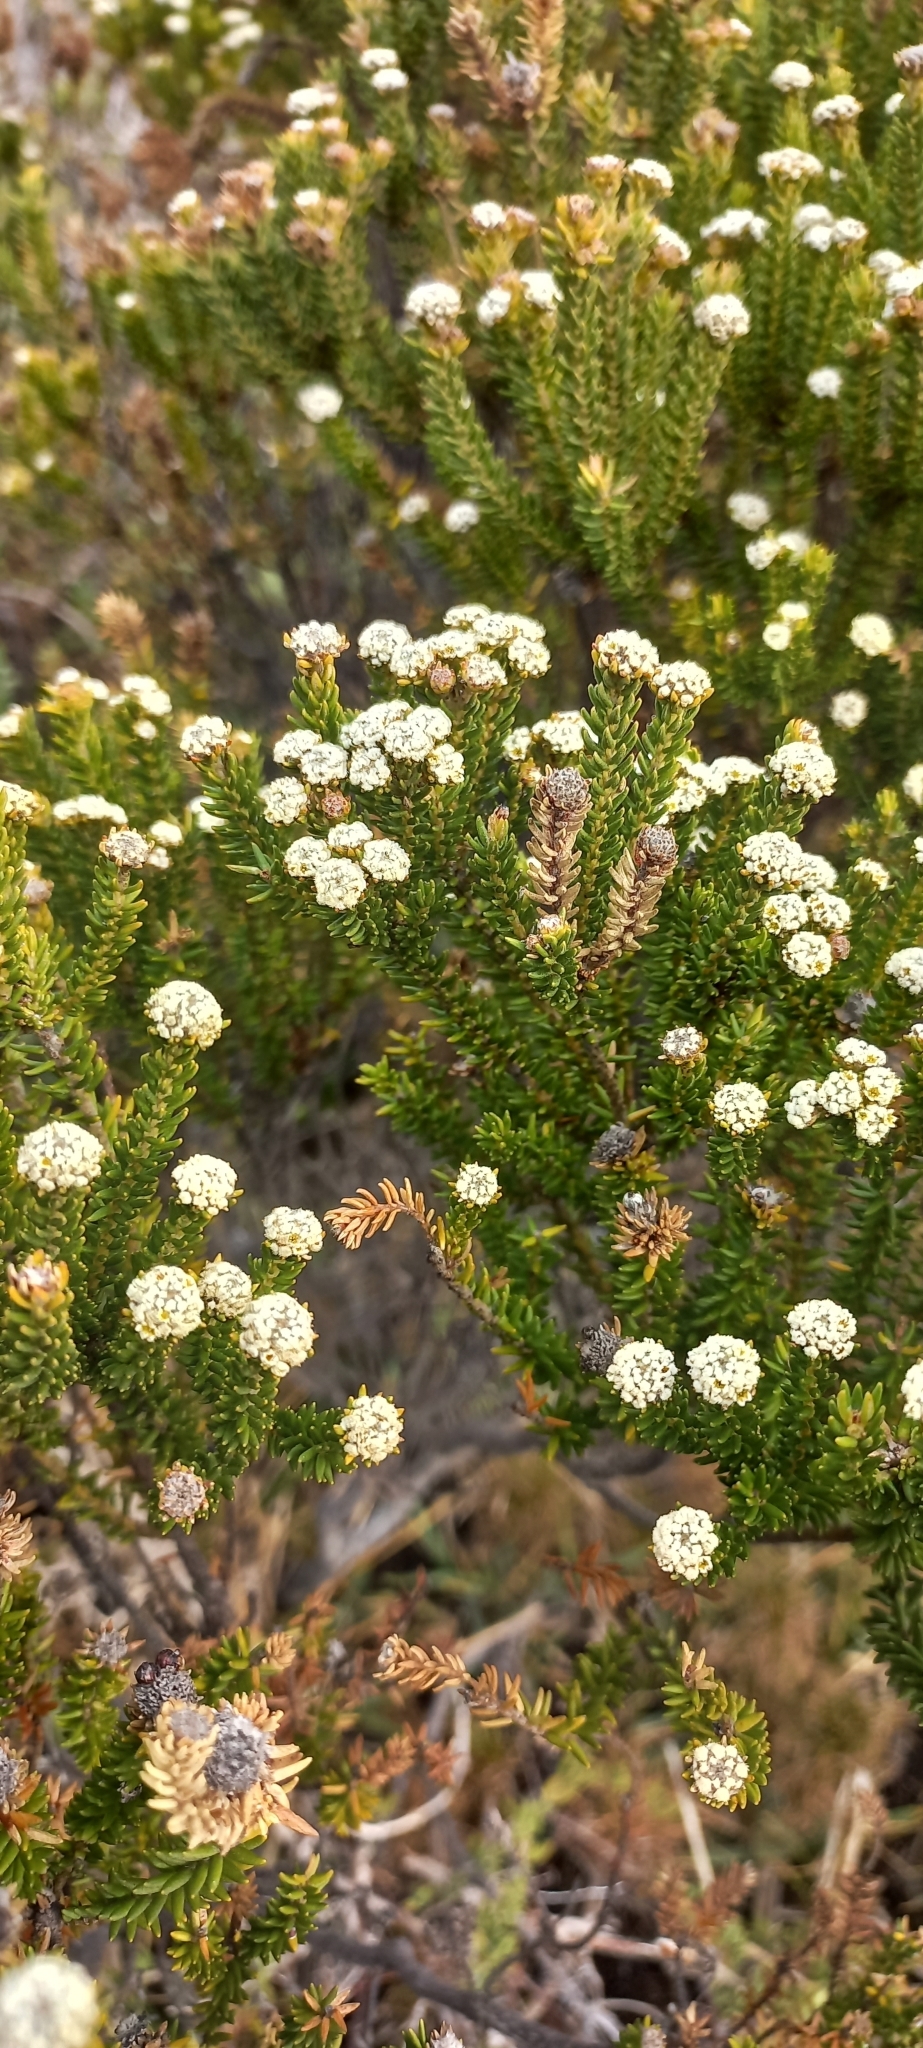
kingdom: Plantae
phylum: Tracheophyta
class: Magnoliopsida
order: Rosales
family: Rhamnaceae
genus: Phylica
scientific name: Phylica ericoides
